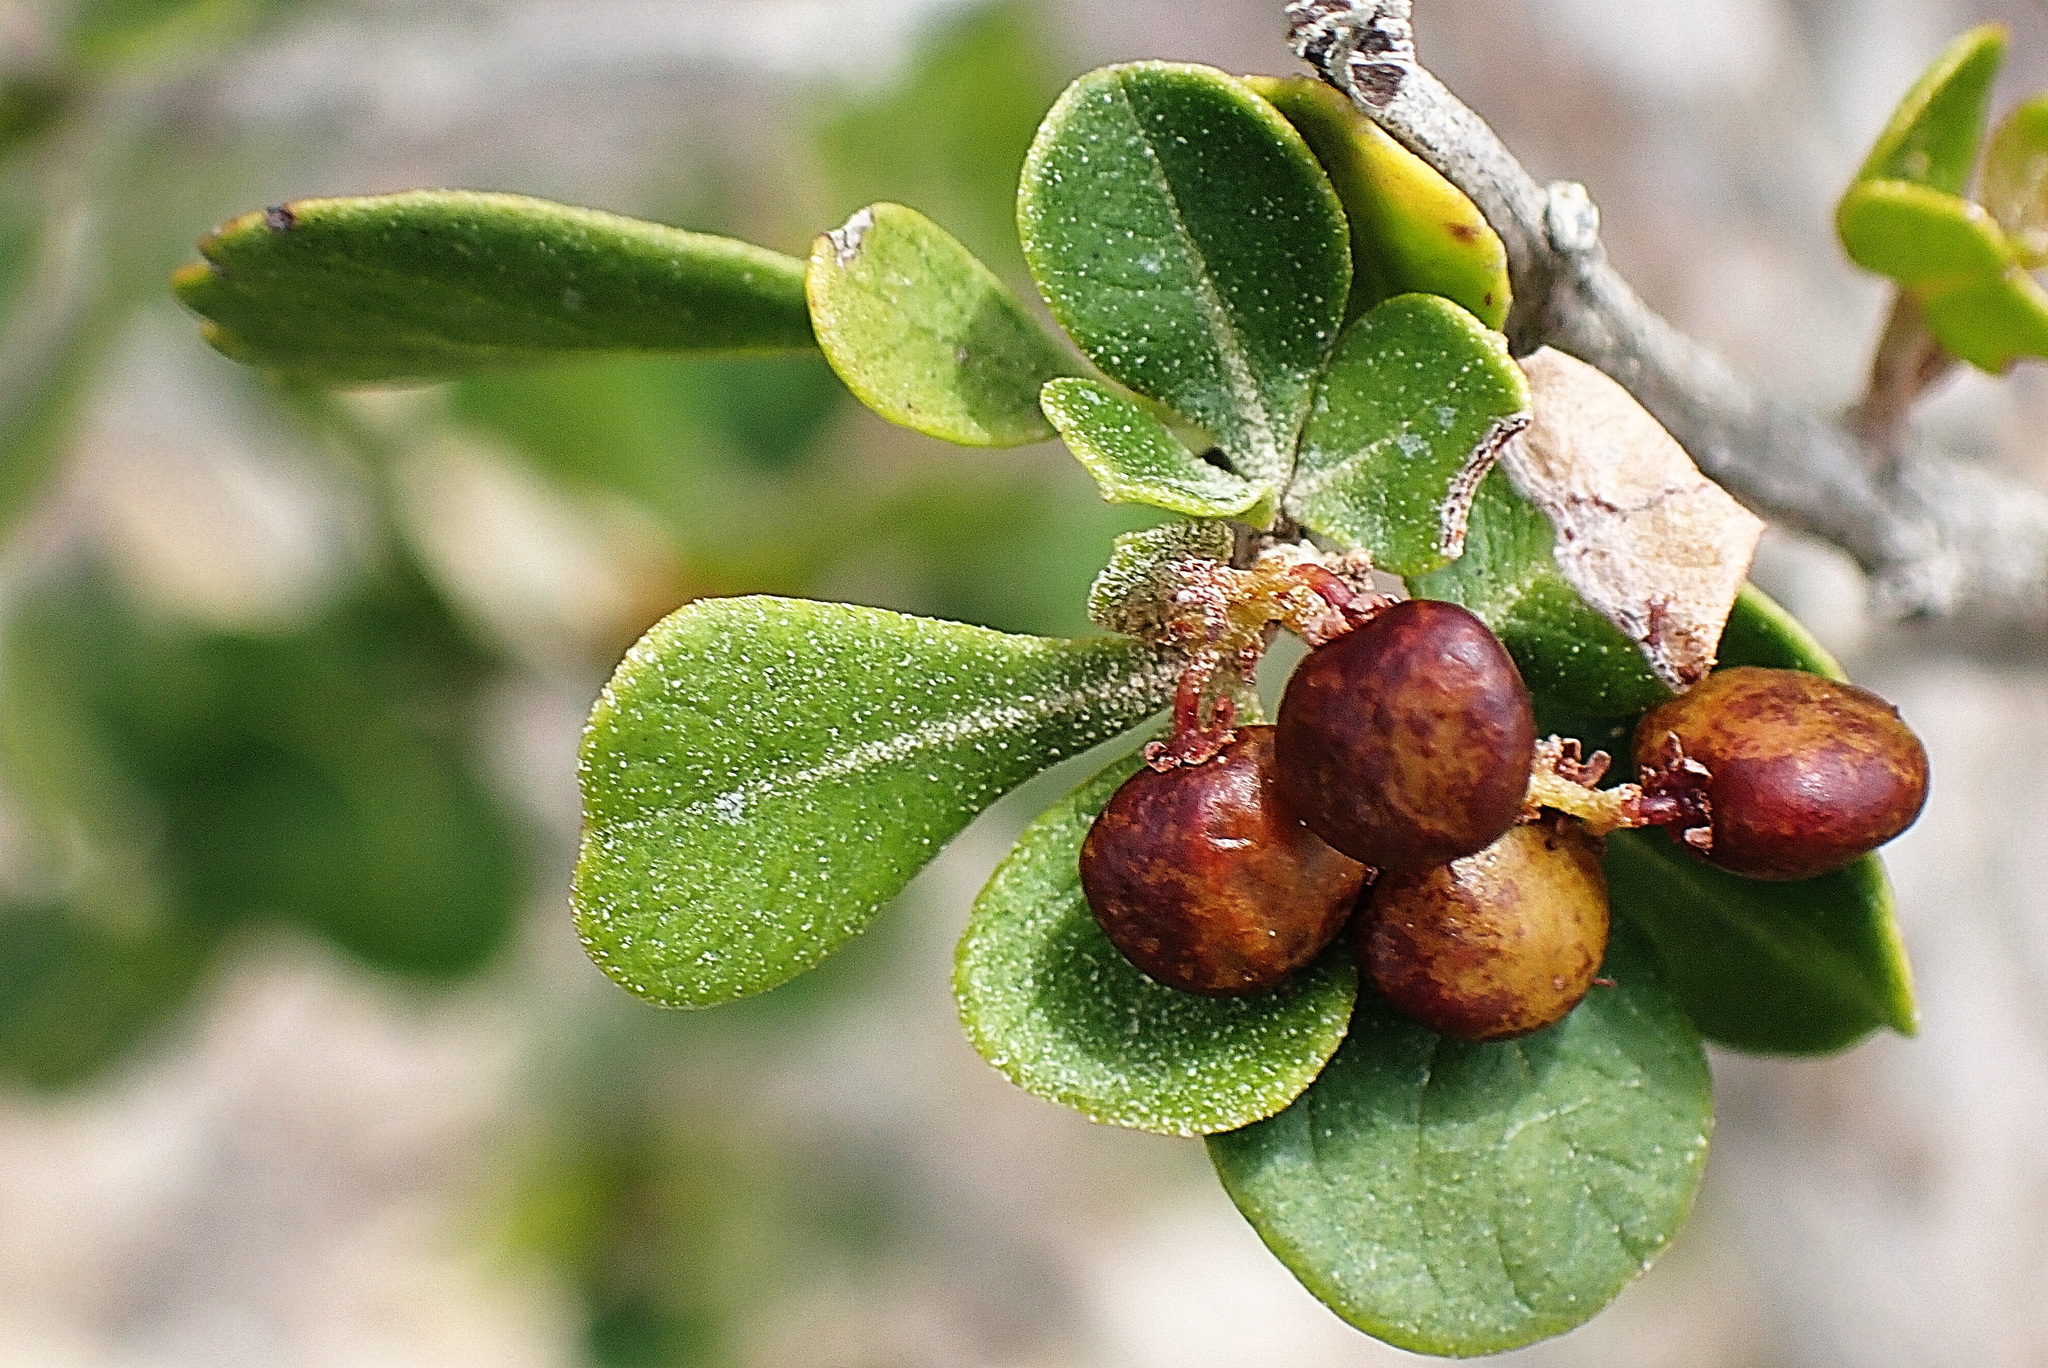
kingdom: Plantae
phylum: Tracheophyta
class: Magnoliopsida
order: Sapindales
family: Anacardiaceae
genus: Searsia
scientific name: Searsia glauca
